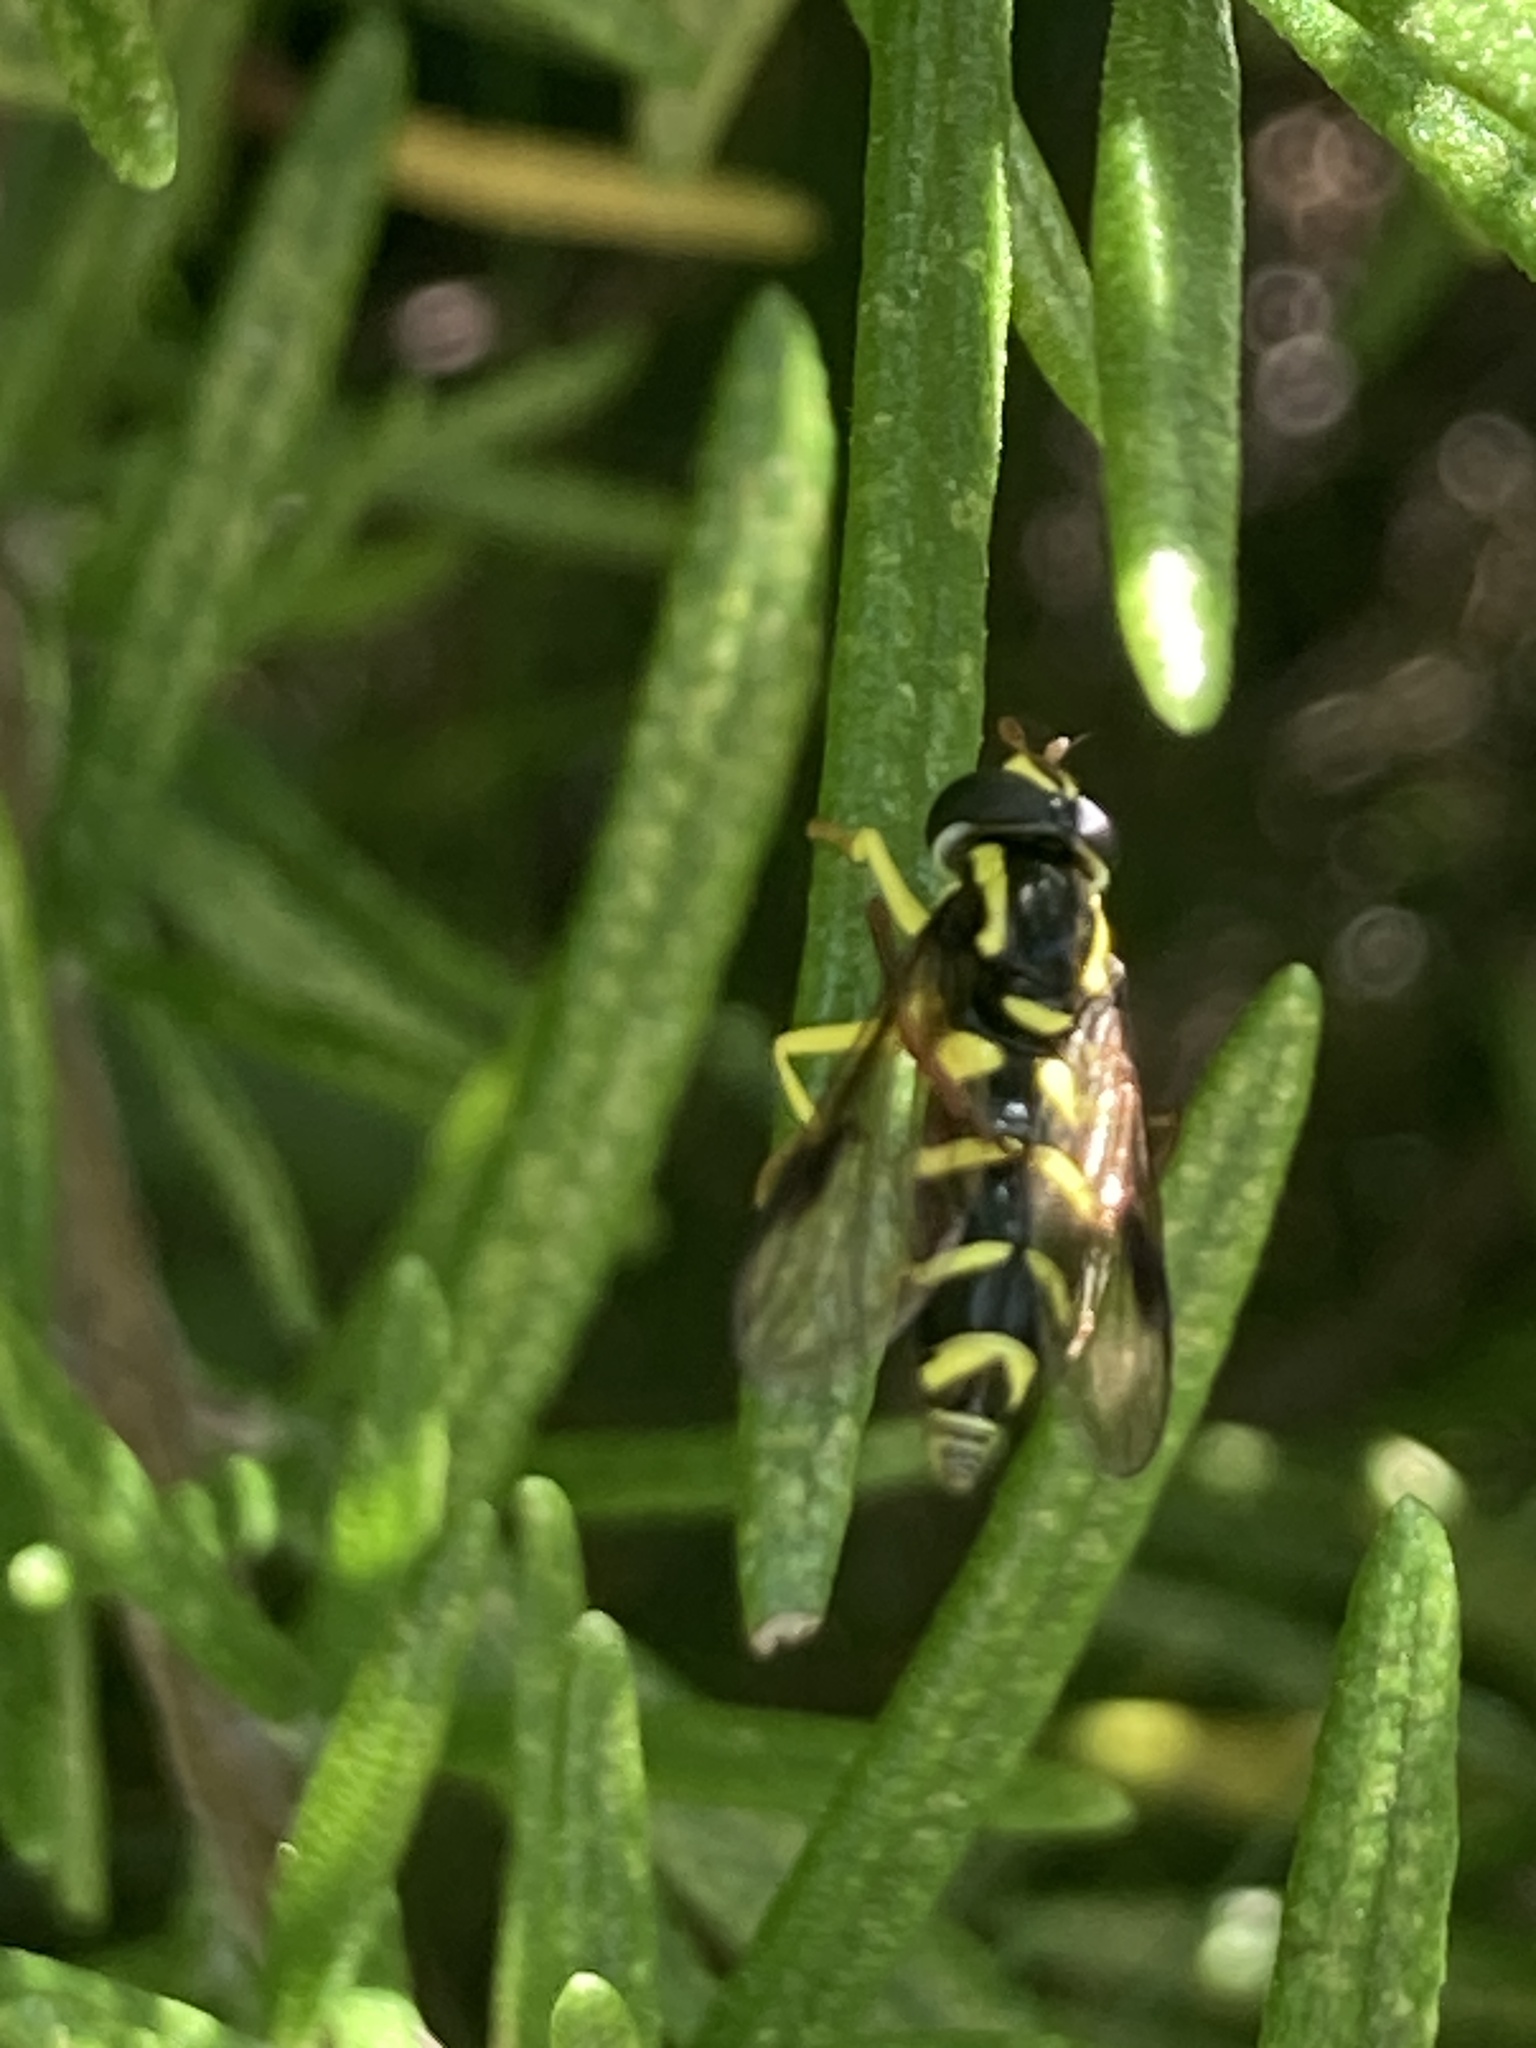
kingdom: Animalia
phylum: Arthropoda
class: Insecta
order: Diptera
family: Syrphidae
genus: Philhelius
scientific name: Philhelius pedissequum
